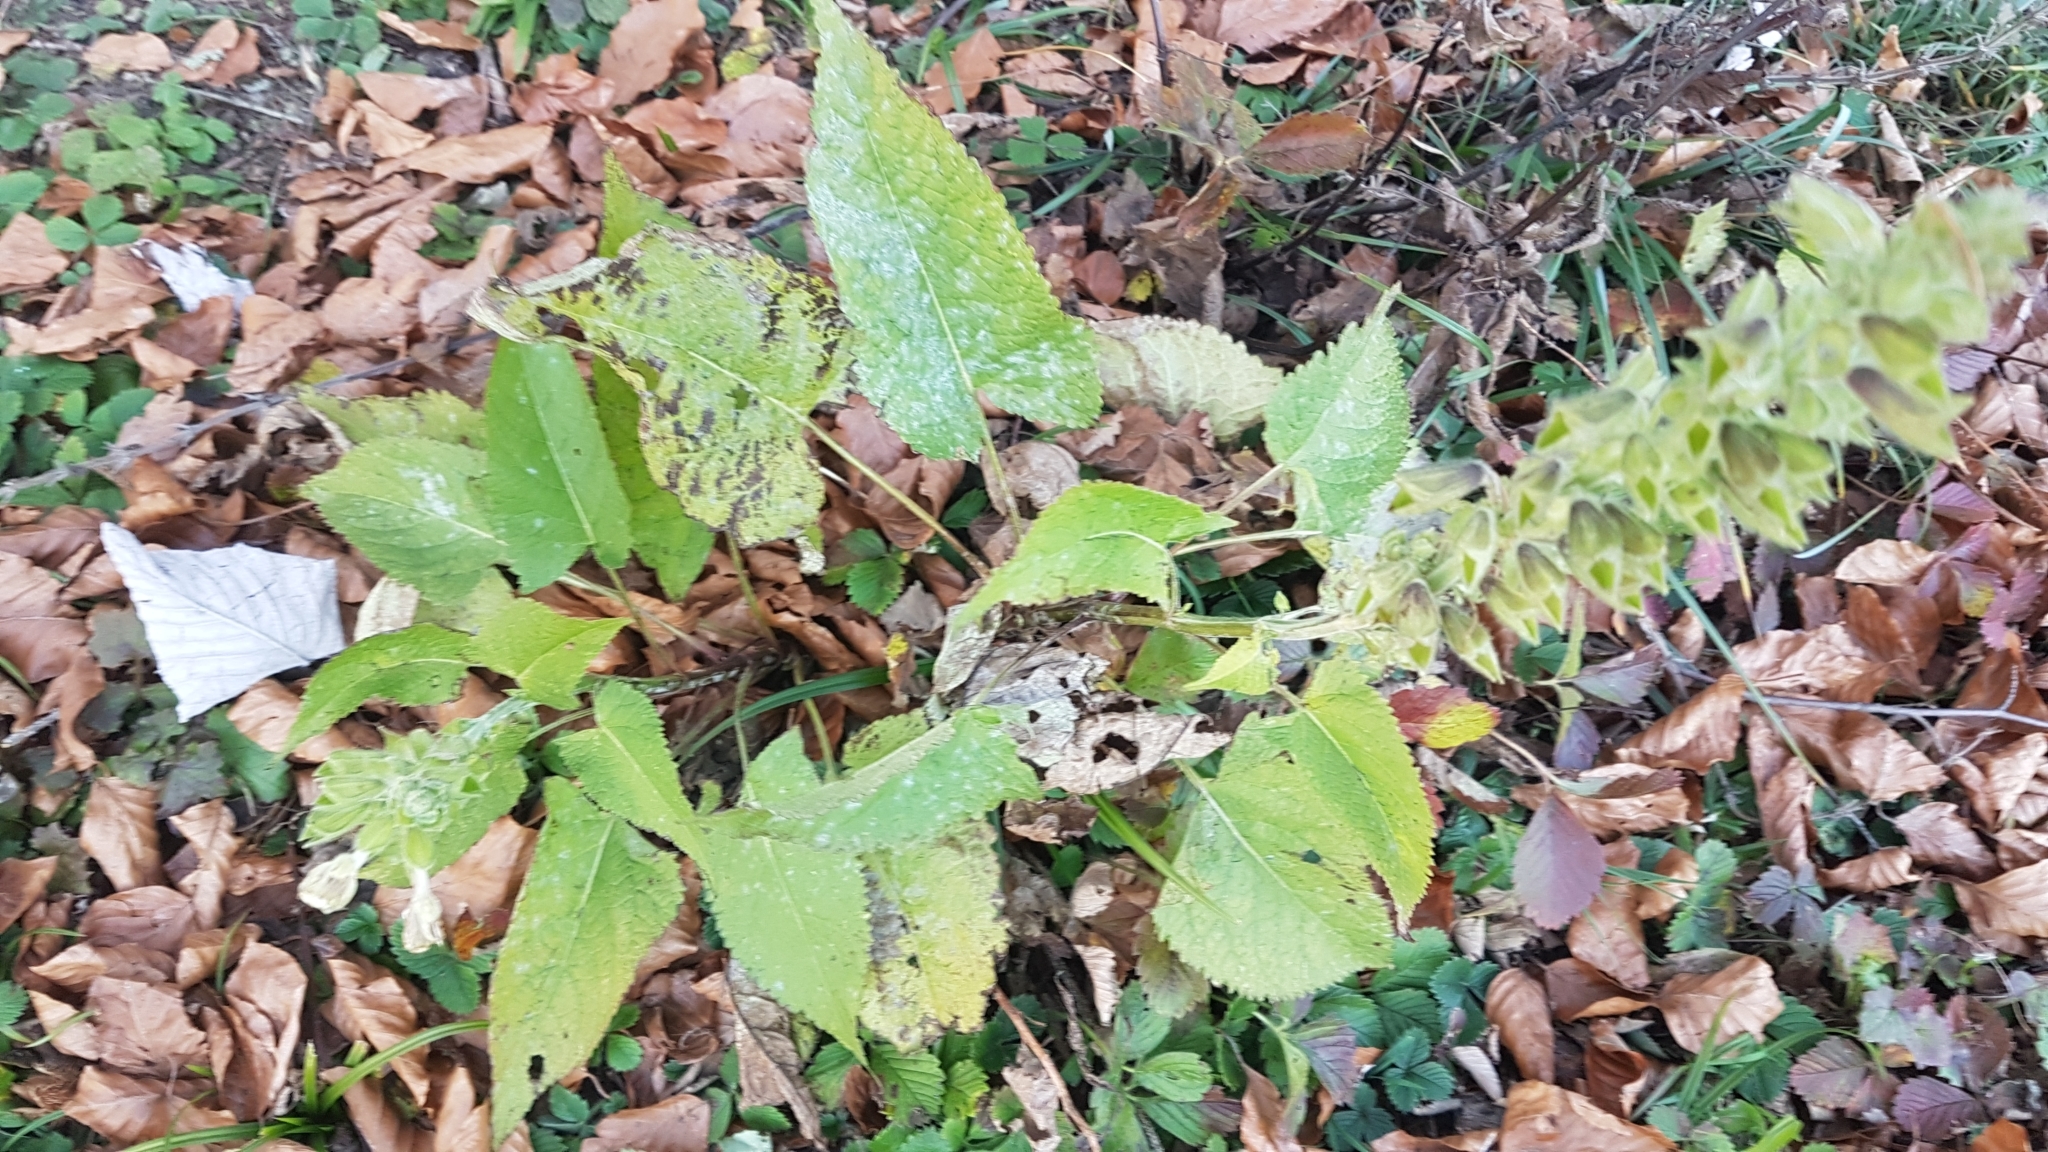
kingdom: Plantae
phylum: Tracheophyta
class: Magnoliopsida
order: Lamiales
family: Lamiaceae
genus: Salvia
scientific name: Salvia glutinosa
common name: Sticky clary
